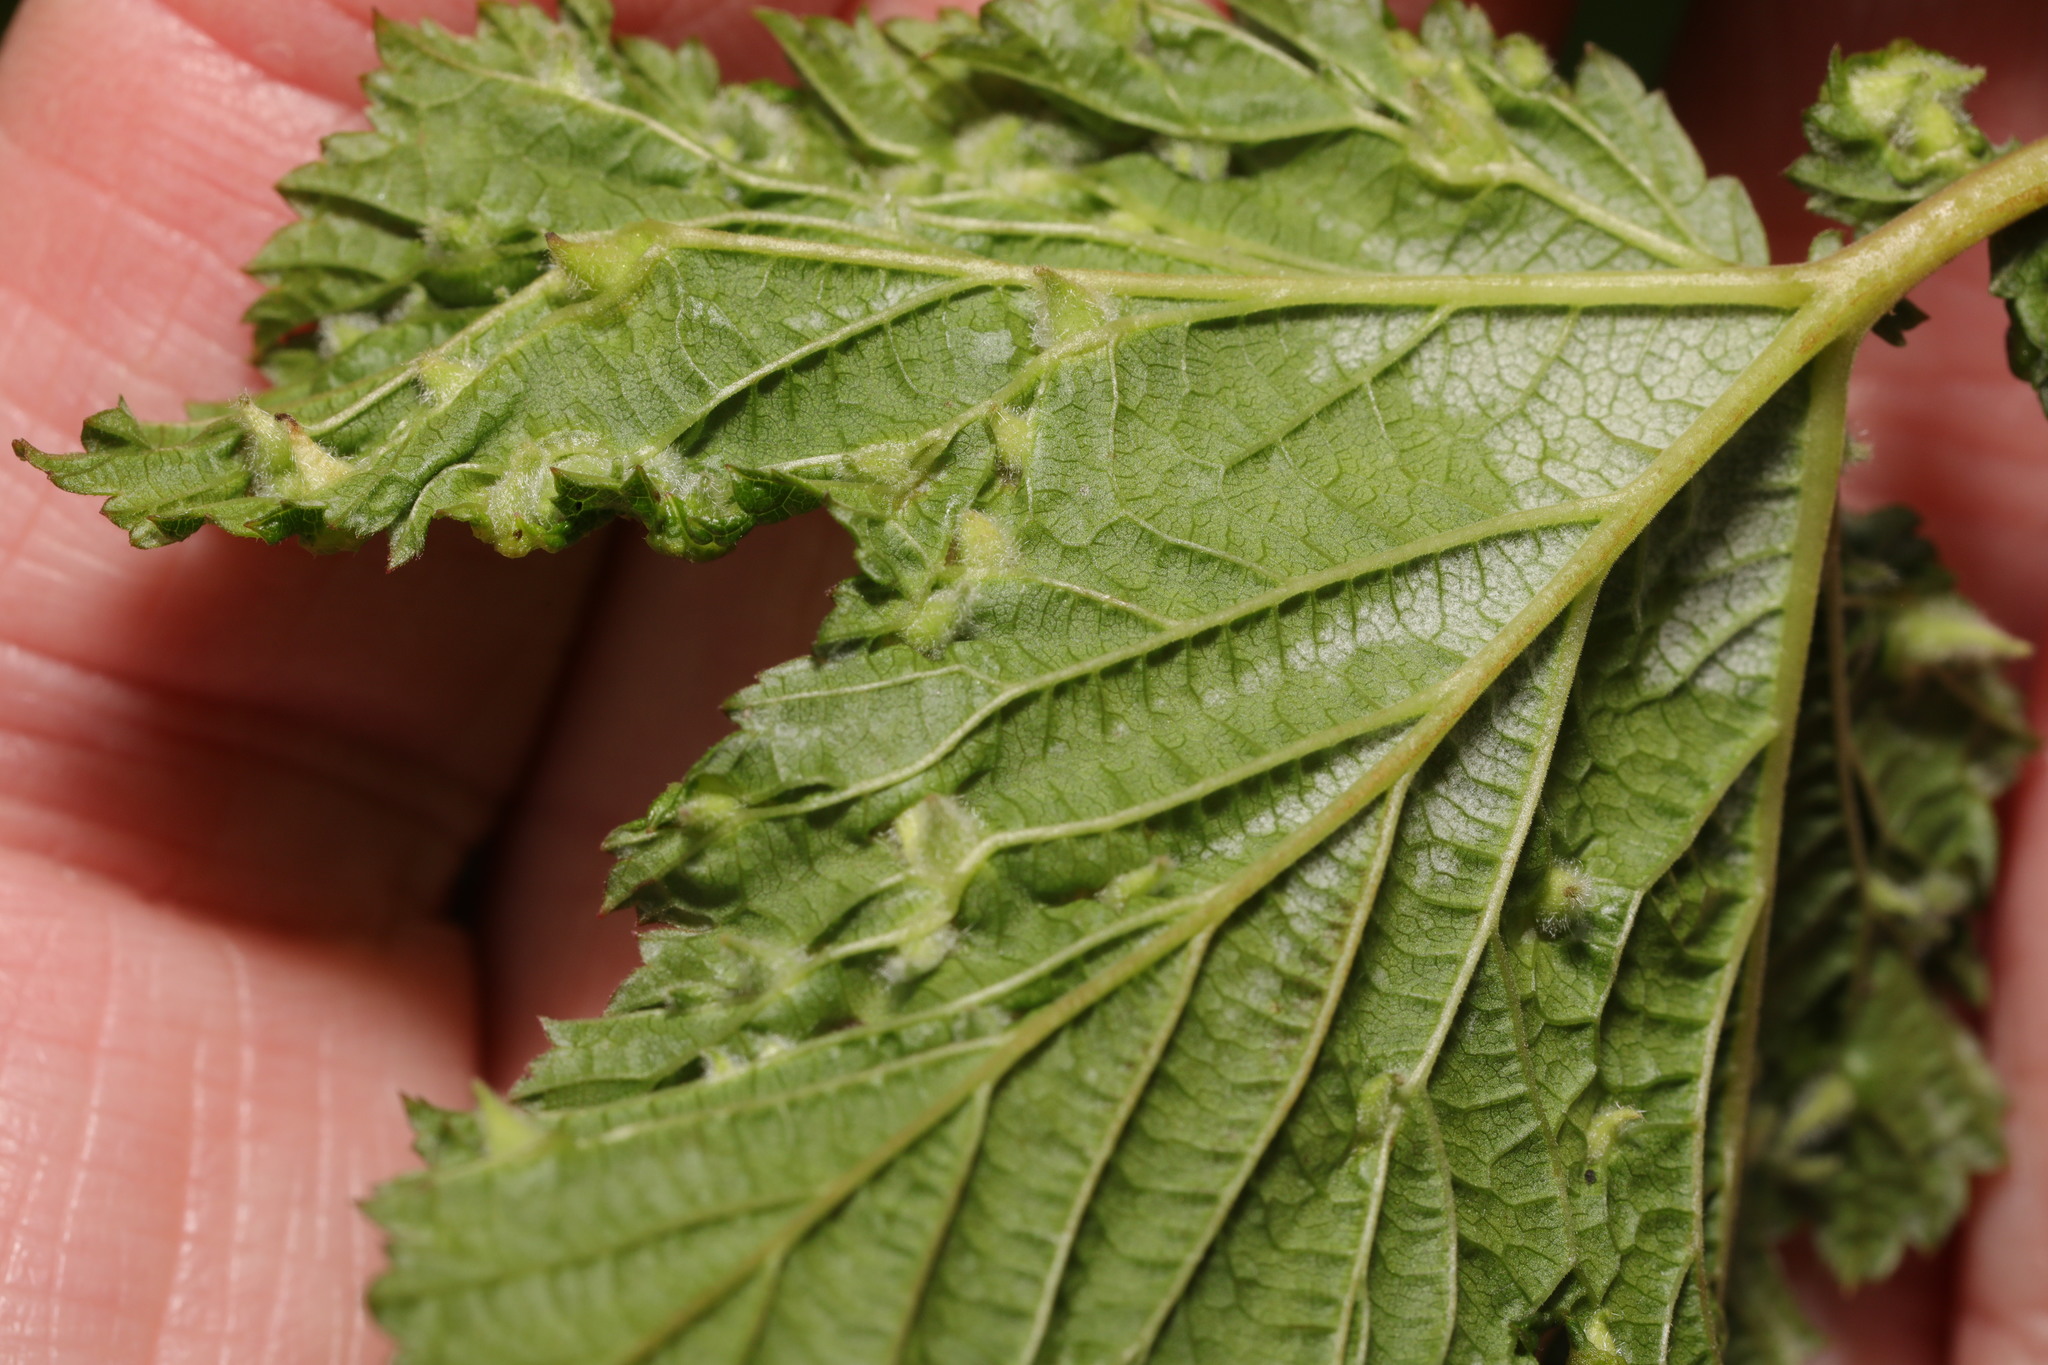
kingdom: Animalia
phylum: Arthropoda
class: Insecta
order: Diptera
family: Cecidomyiidae
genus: Dasineura
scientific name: Dasineura ulmaria
